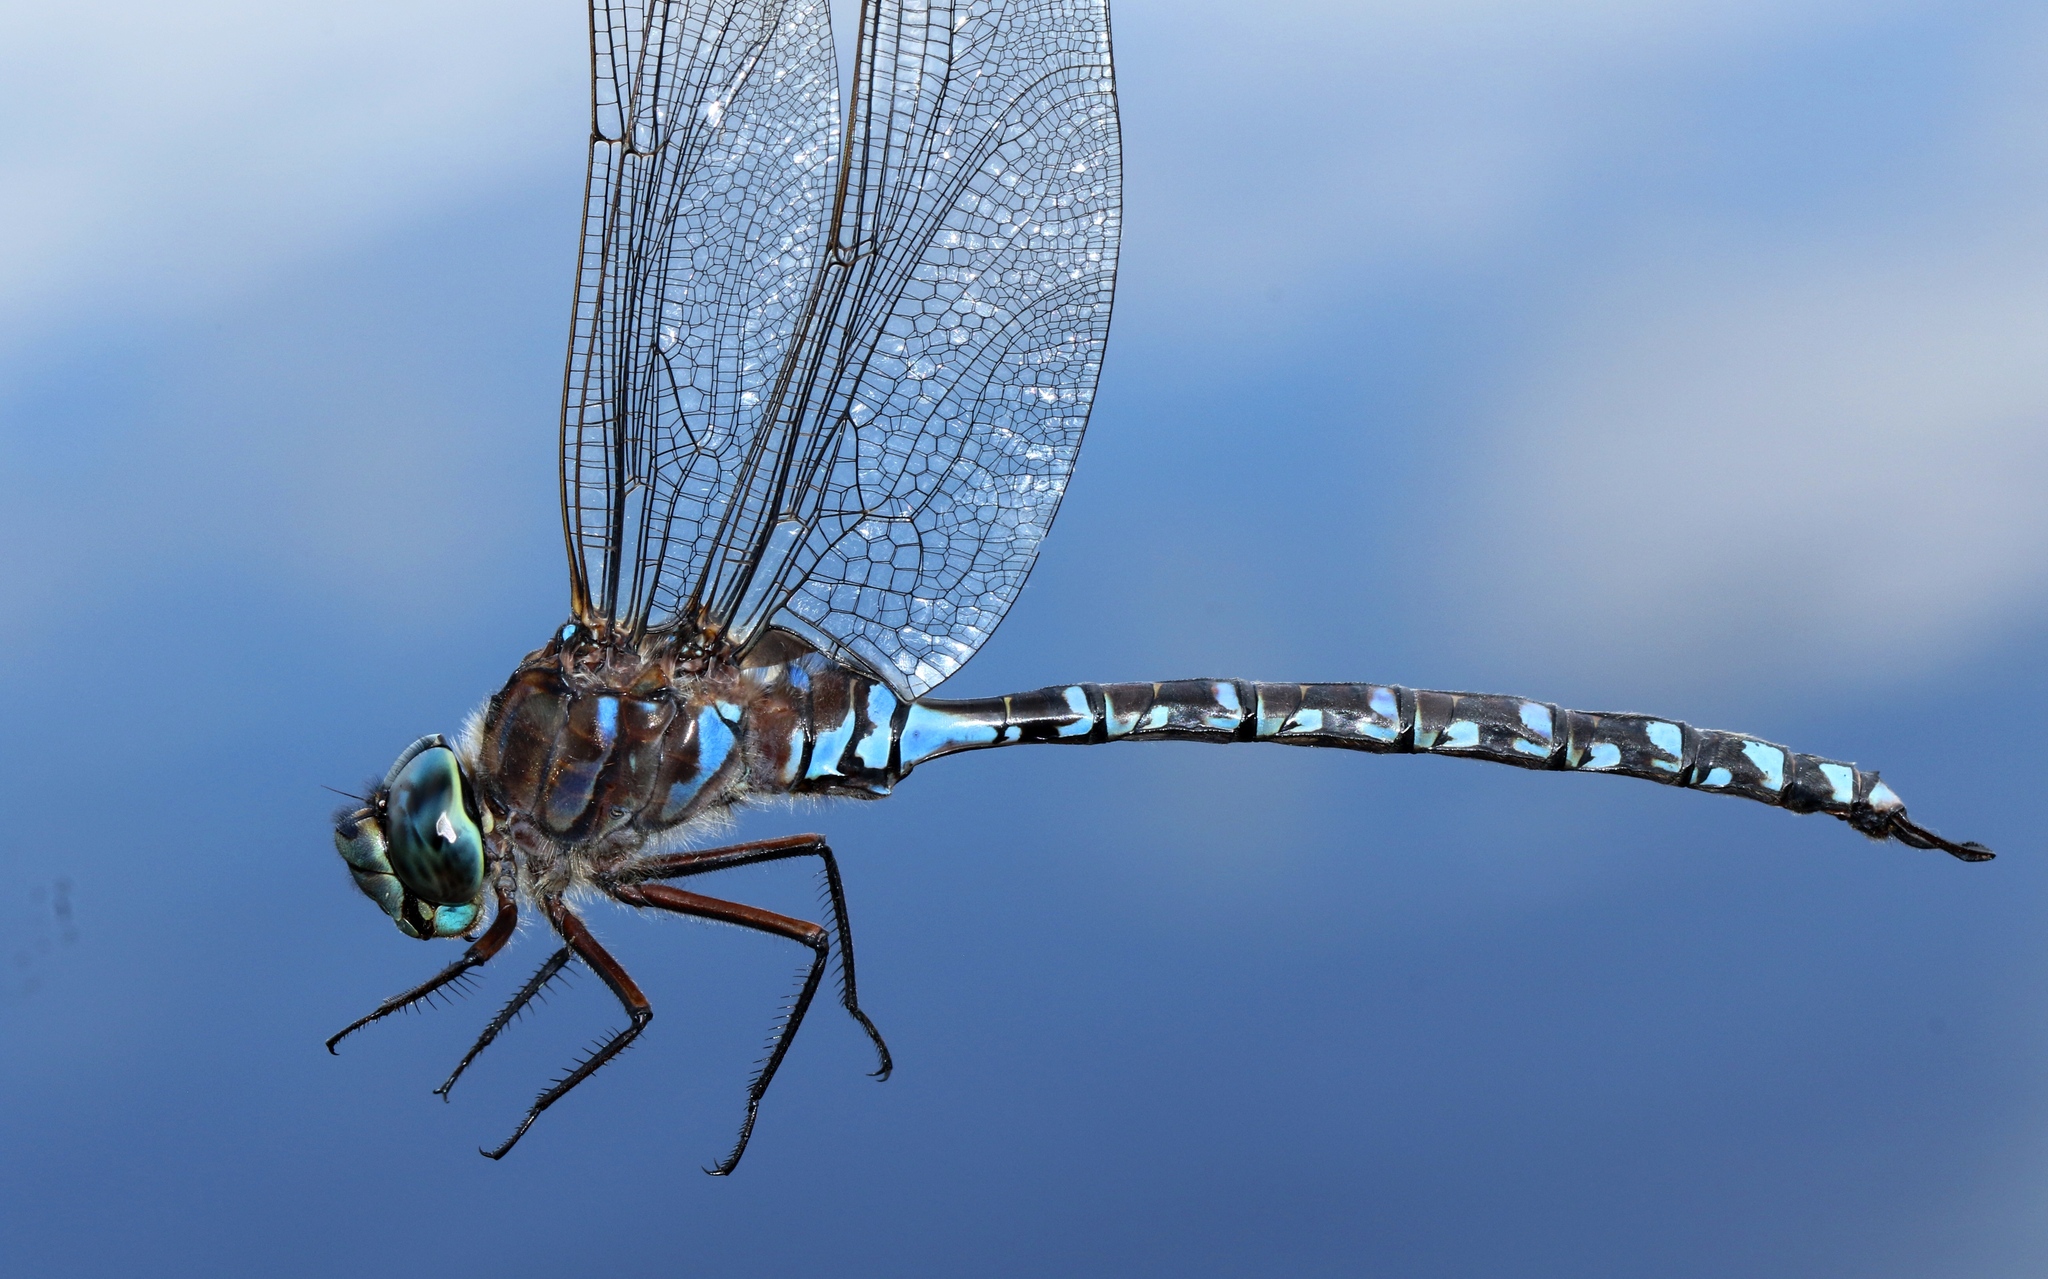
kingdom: Animalia
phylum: Arthropoda
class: Insecta
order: Odonata
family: Aeshnidae
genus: Aeshna
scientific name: Aeshna eremita
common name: Lake darner
